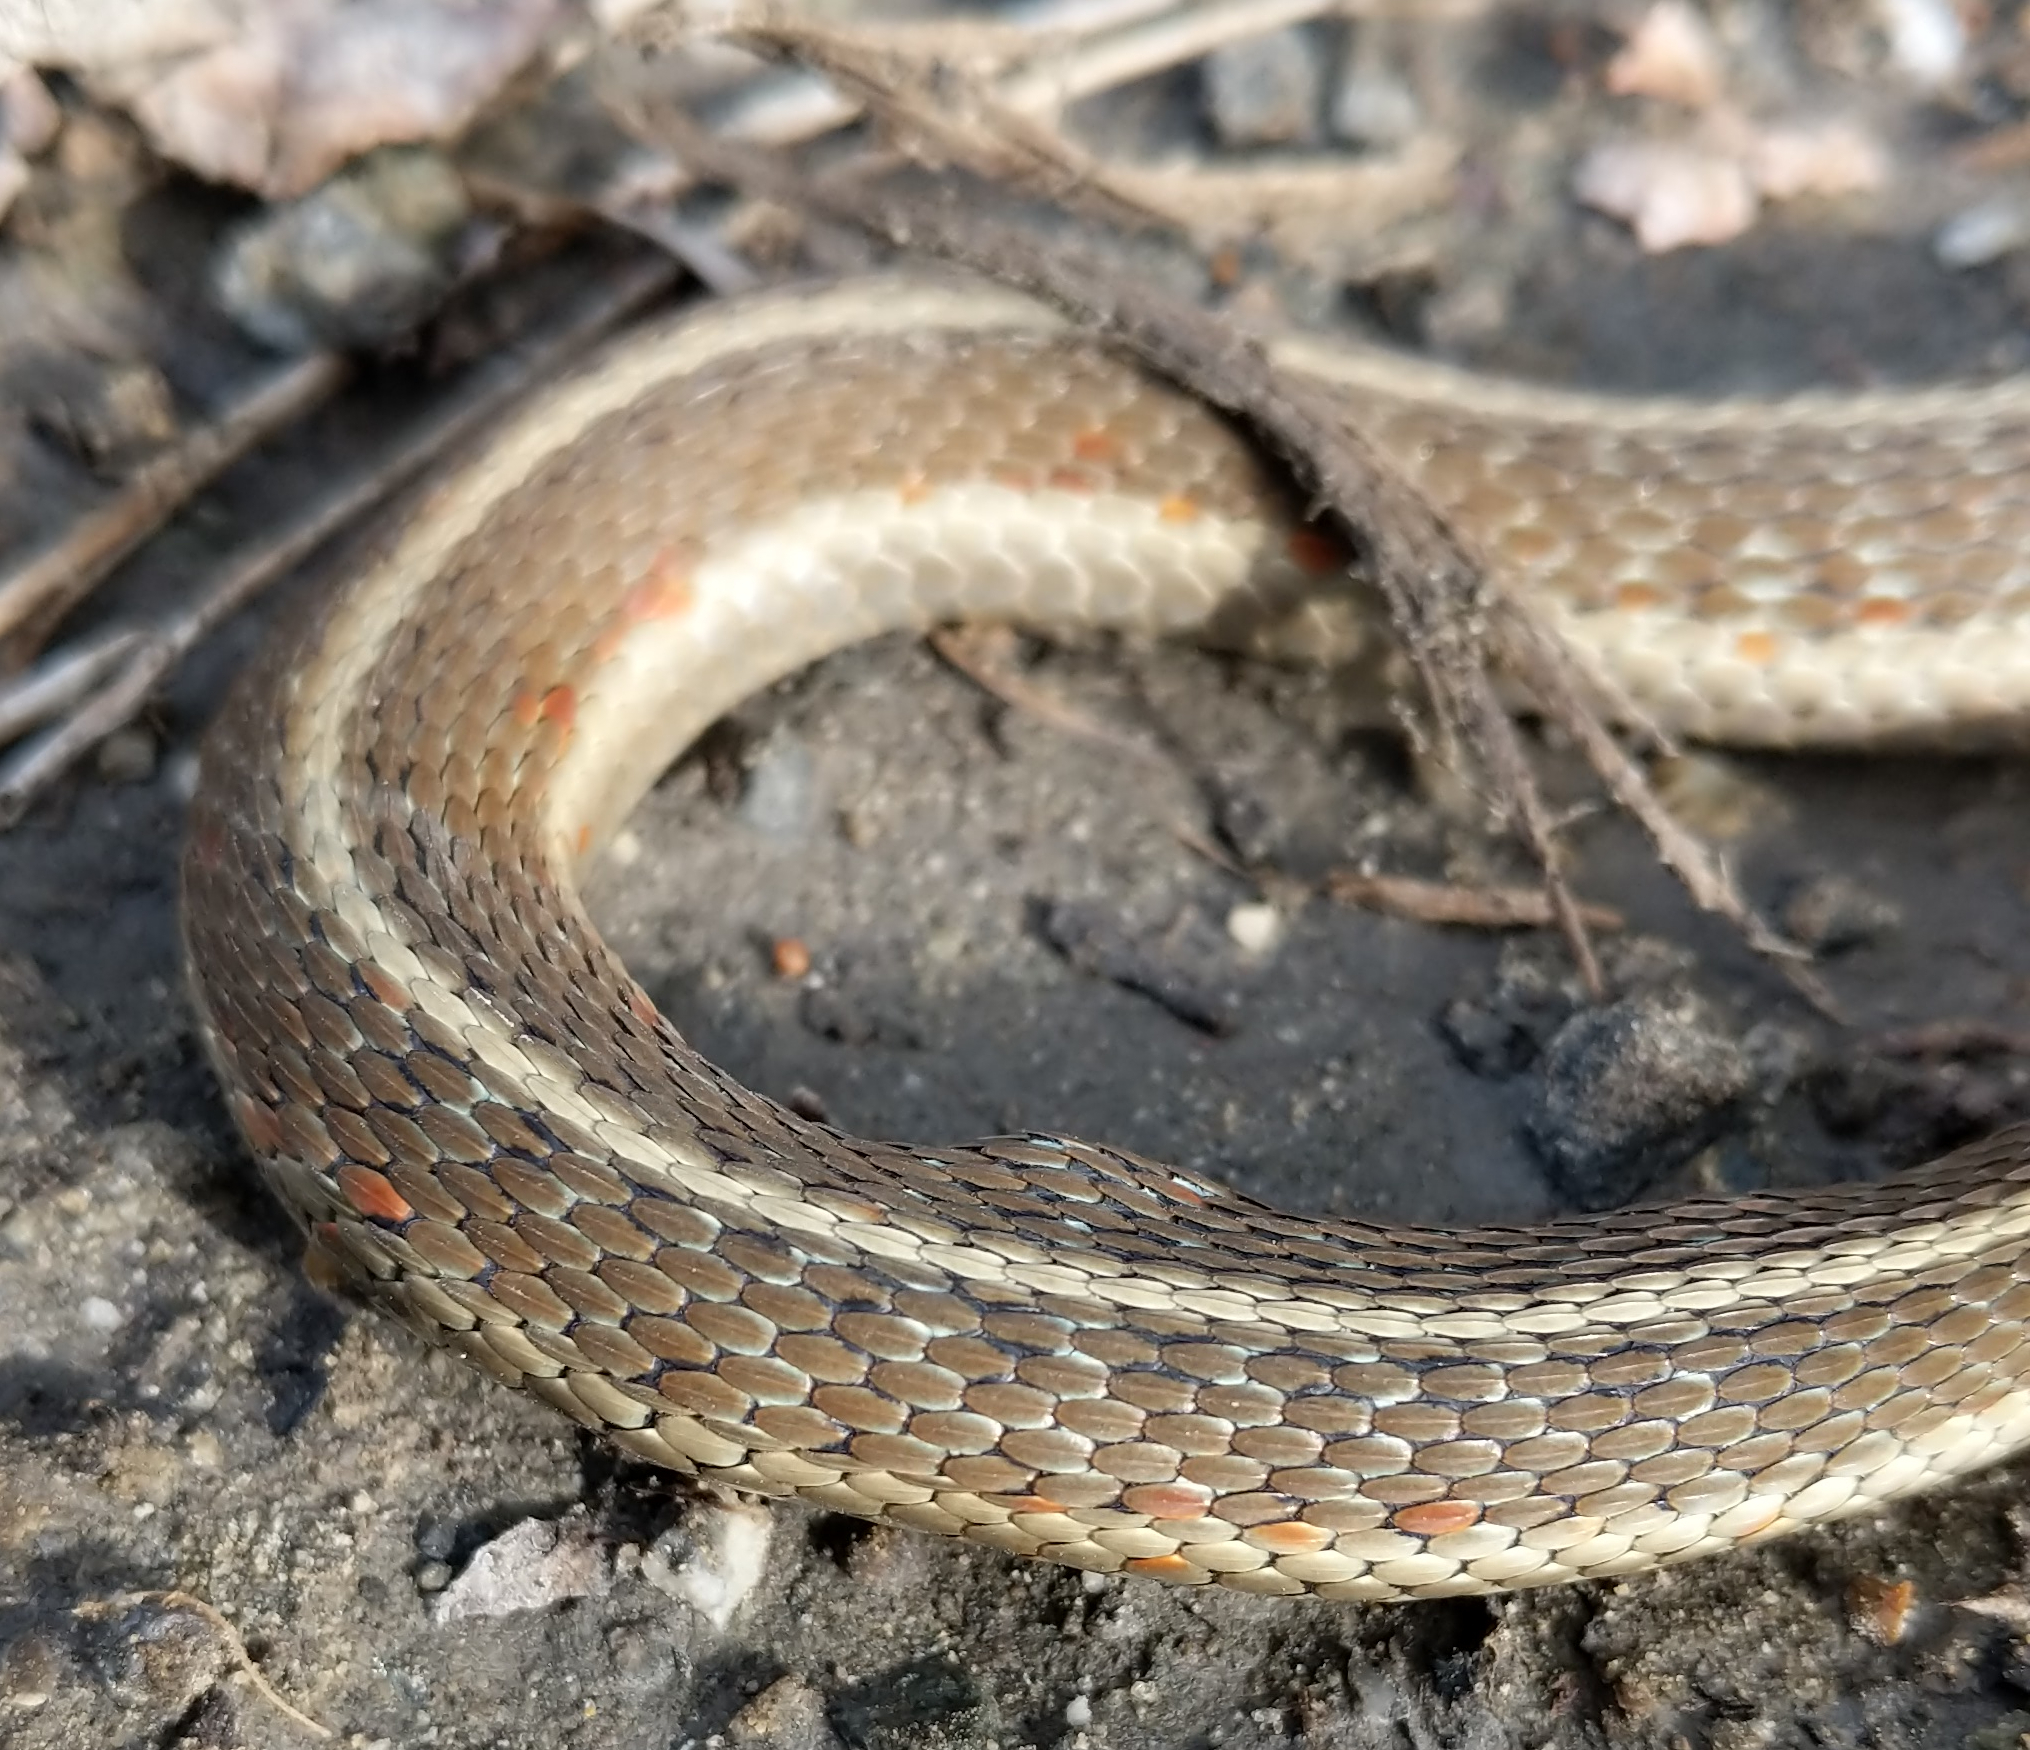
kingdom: Animalia
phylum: Chordata
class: Squamata
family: Colubridae
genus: Thamnophis
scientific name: Thamnophis elegans
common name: Western terrestrial garter snake
